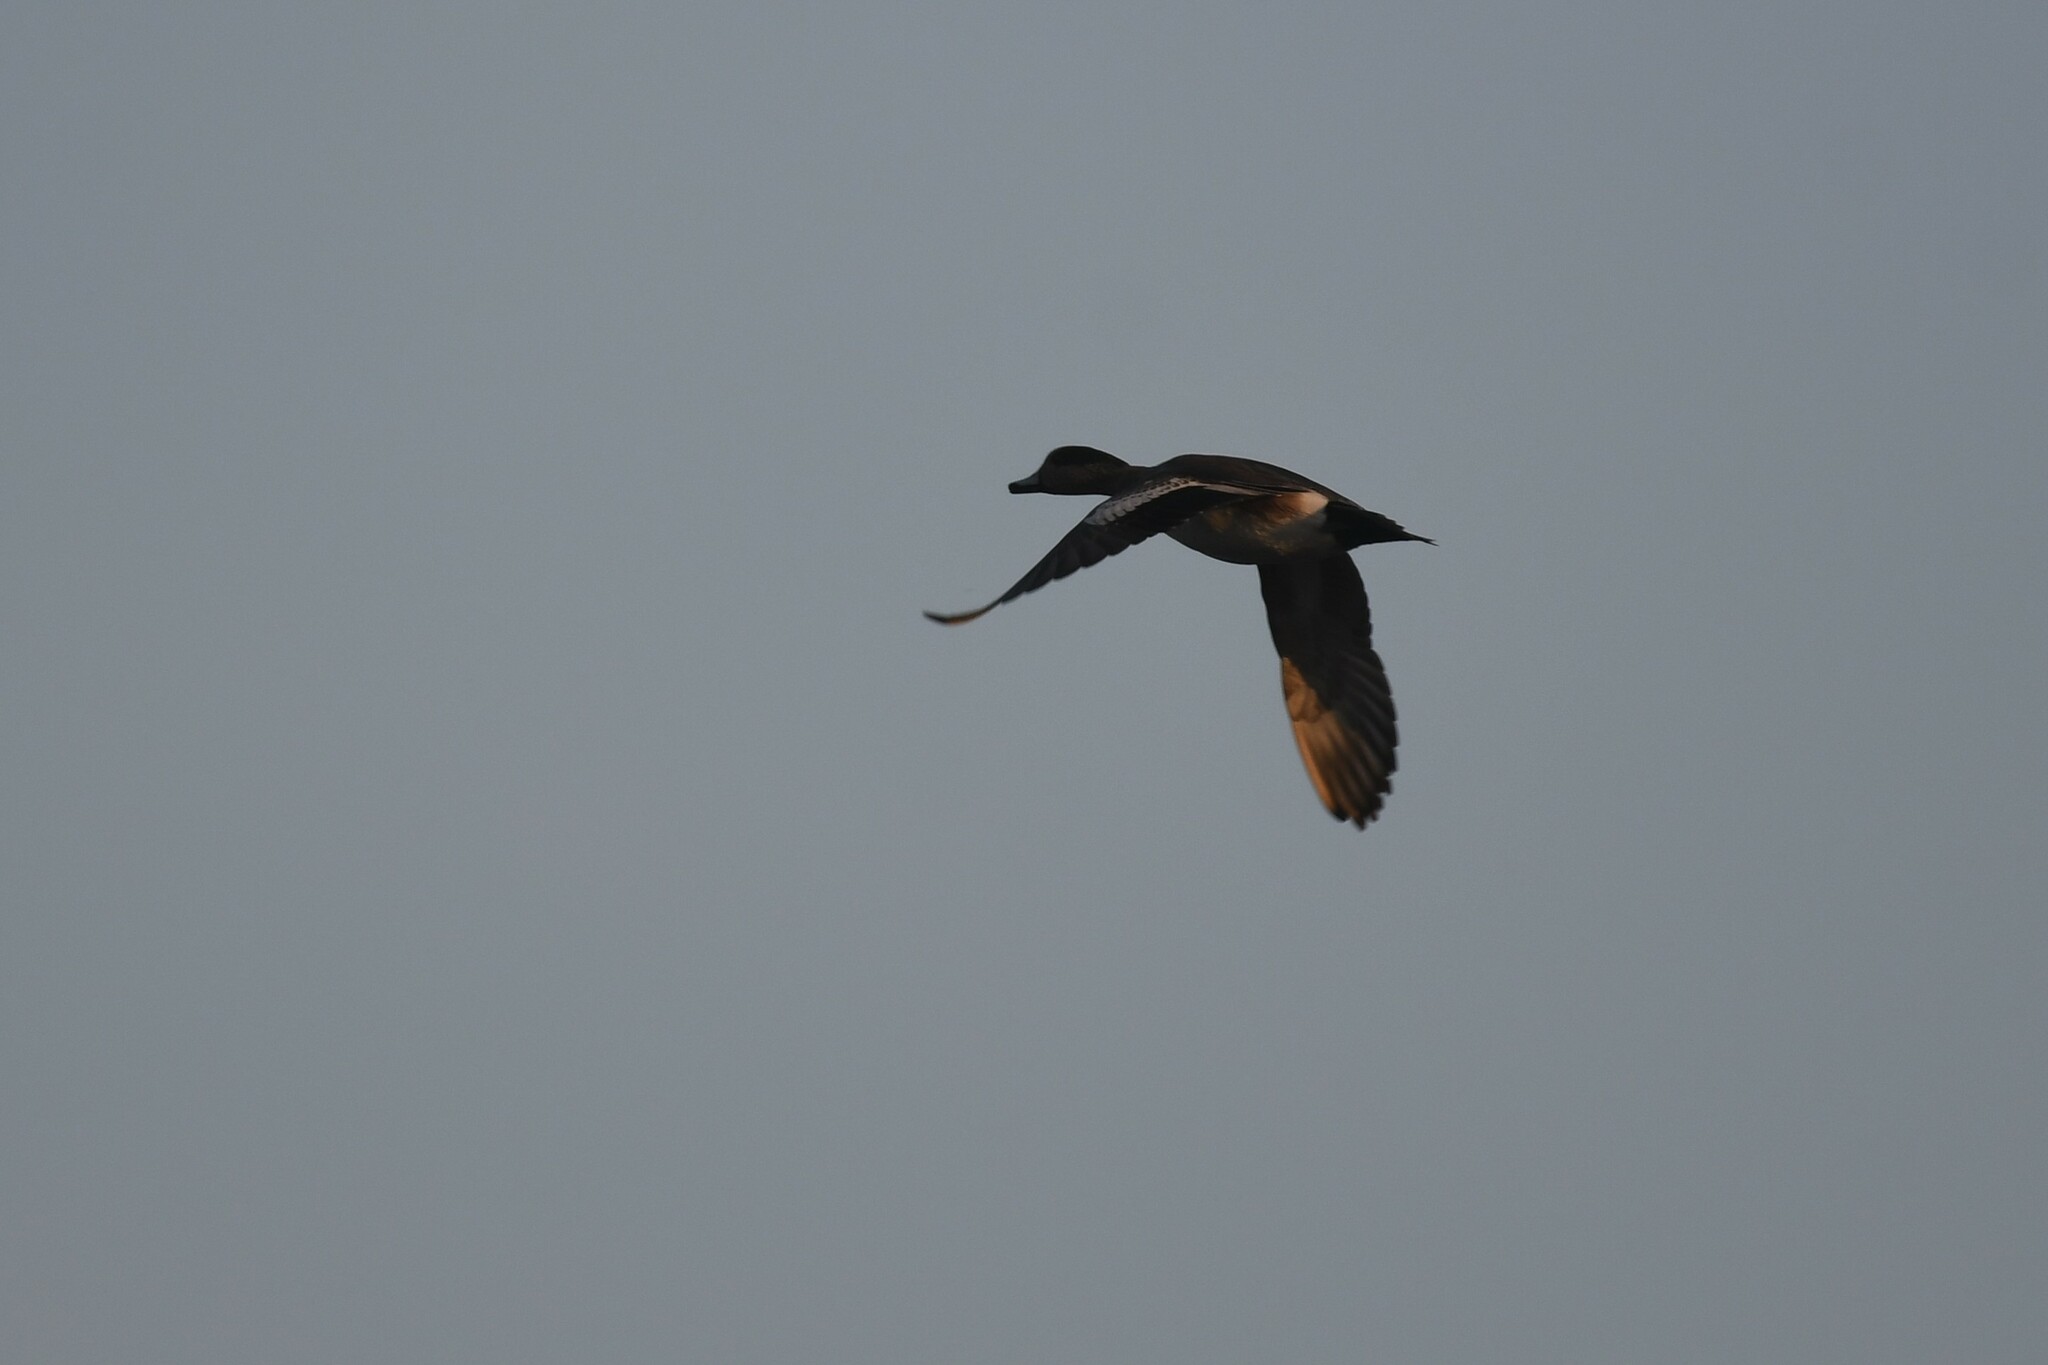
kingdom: Animalia
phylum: Chordata
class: Aves
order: Anseriformes
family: Anatidae
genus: Mareca
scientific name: Mareca americana
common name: American wigeon
